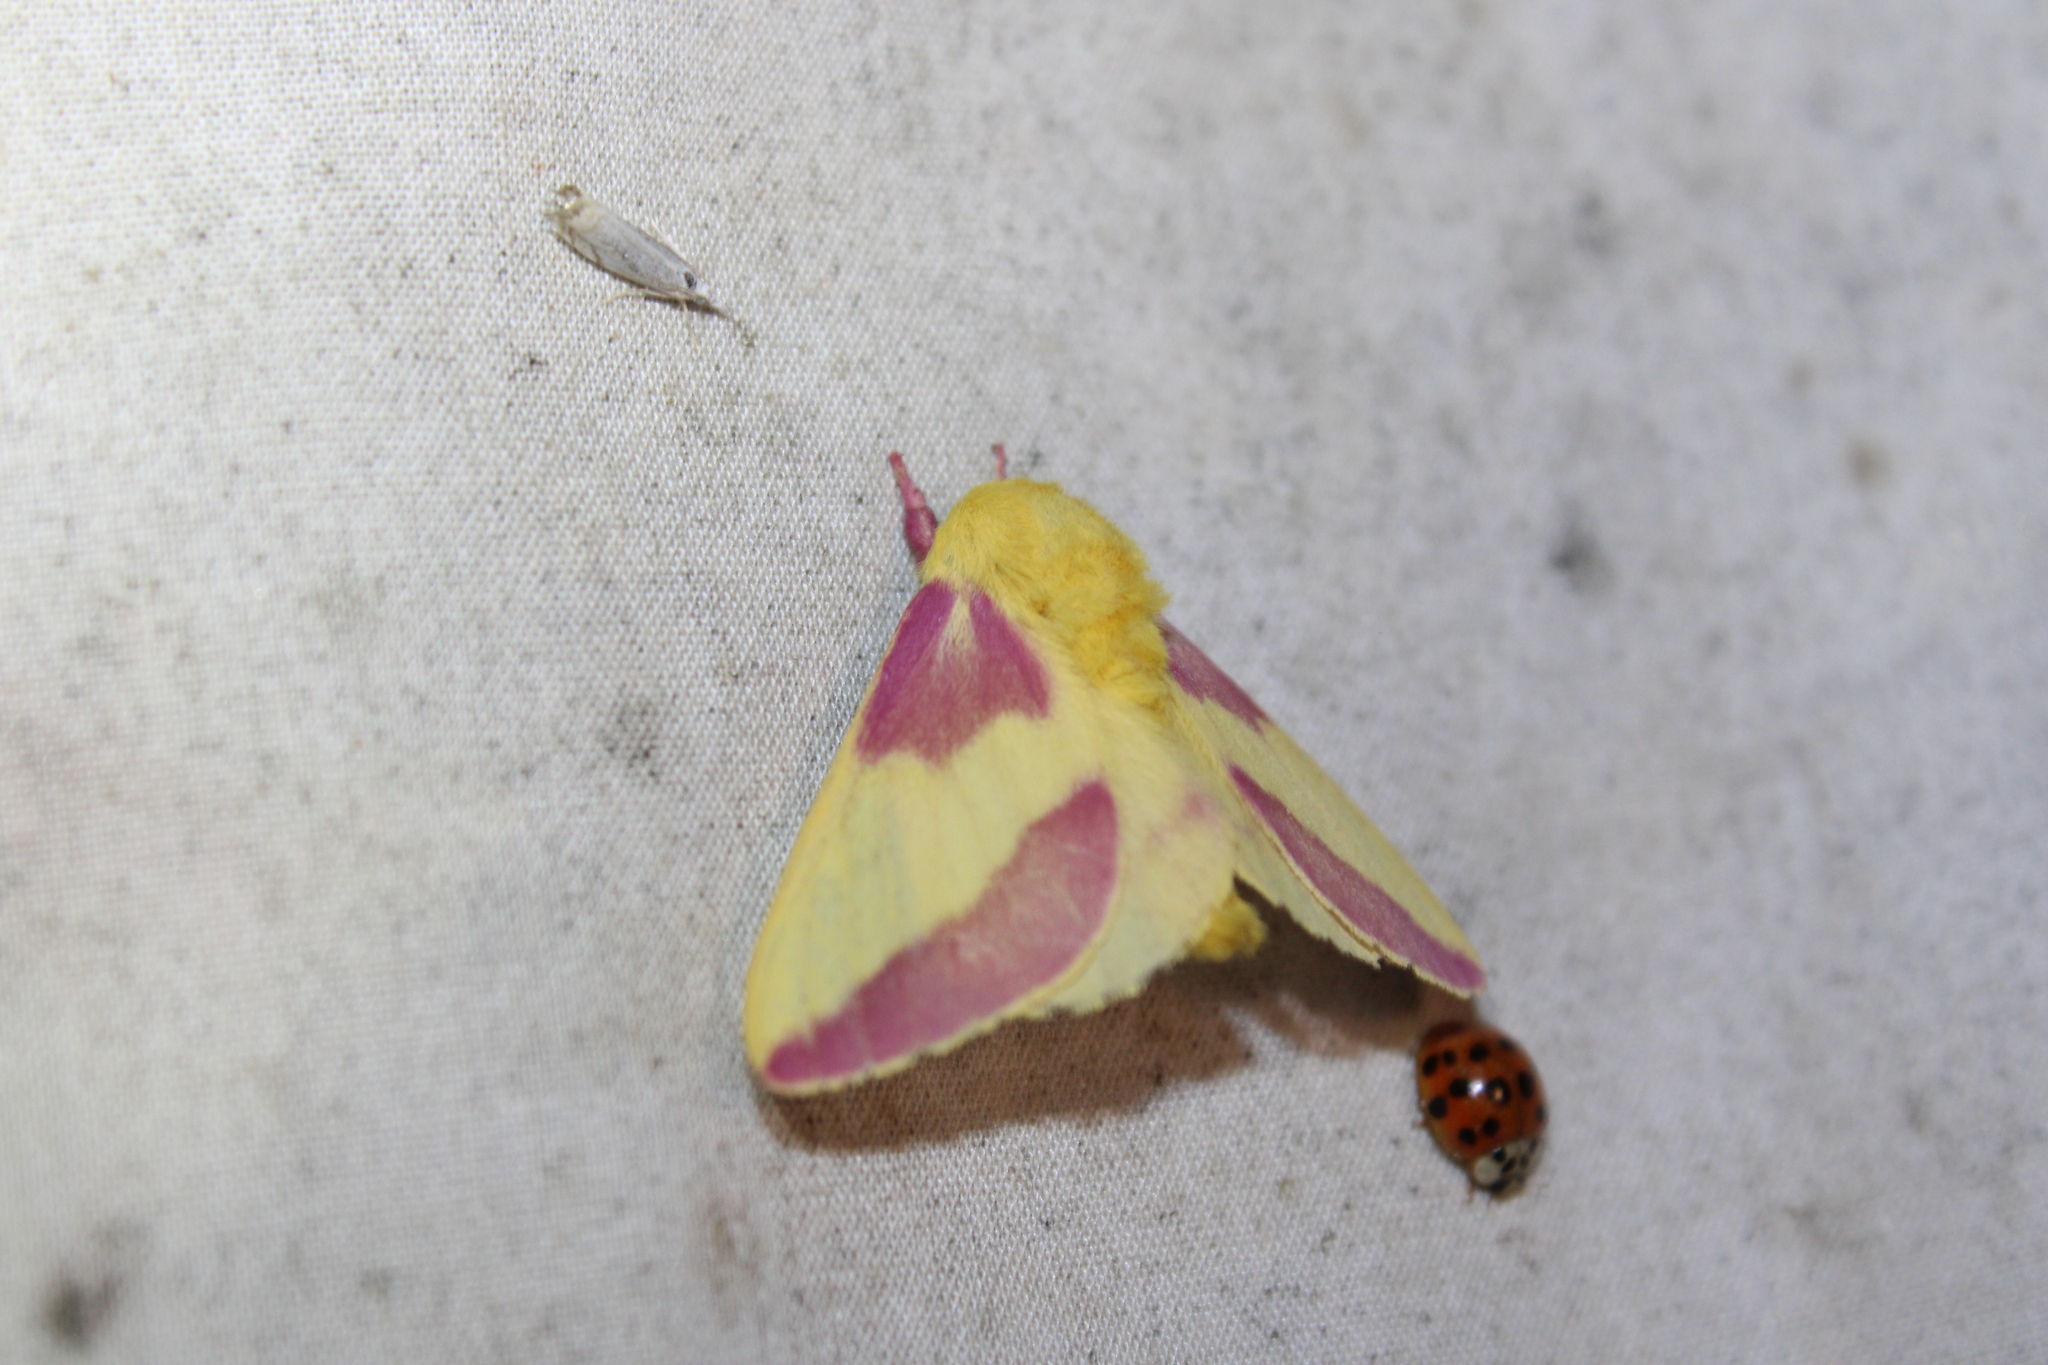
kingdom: Animalia
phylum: Arthropoda
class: Insecta
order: Lepidoptera
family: Saturniidae
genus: Dryocampa
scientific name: Dryocampa rubicunda
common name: Rosy maple moth
